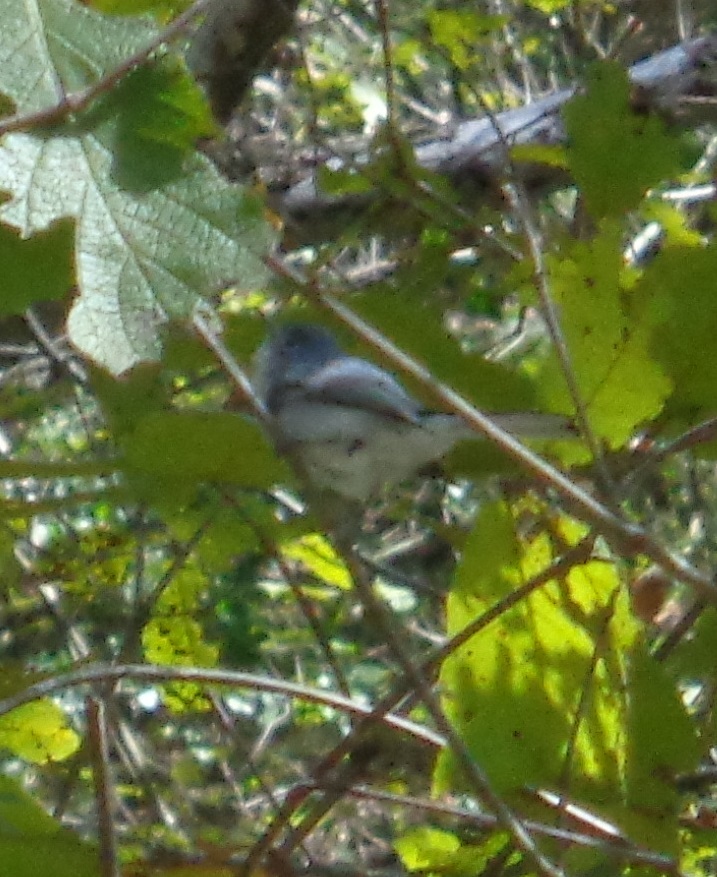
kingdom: Animalia
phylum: Chordata
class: Aves
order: Passeriformes
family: Polioptilidae
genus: Polioptila
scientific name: Polioptila caerulea
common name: Blue-gray gnatcatcher
